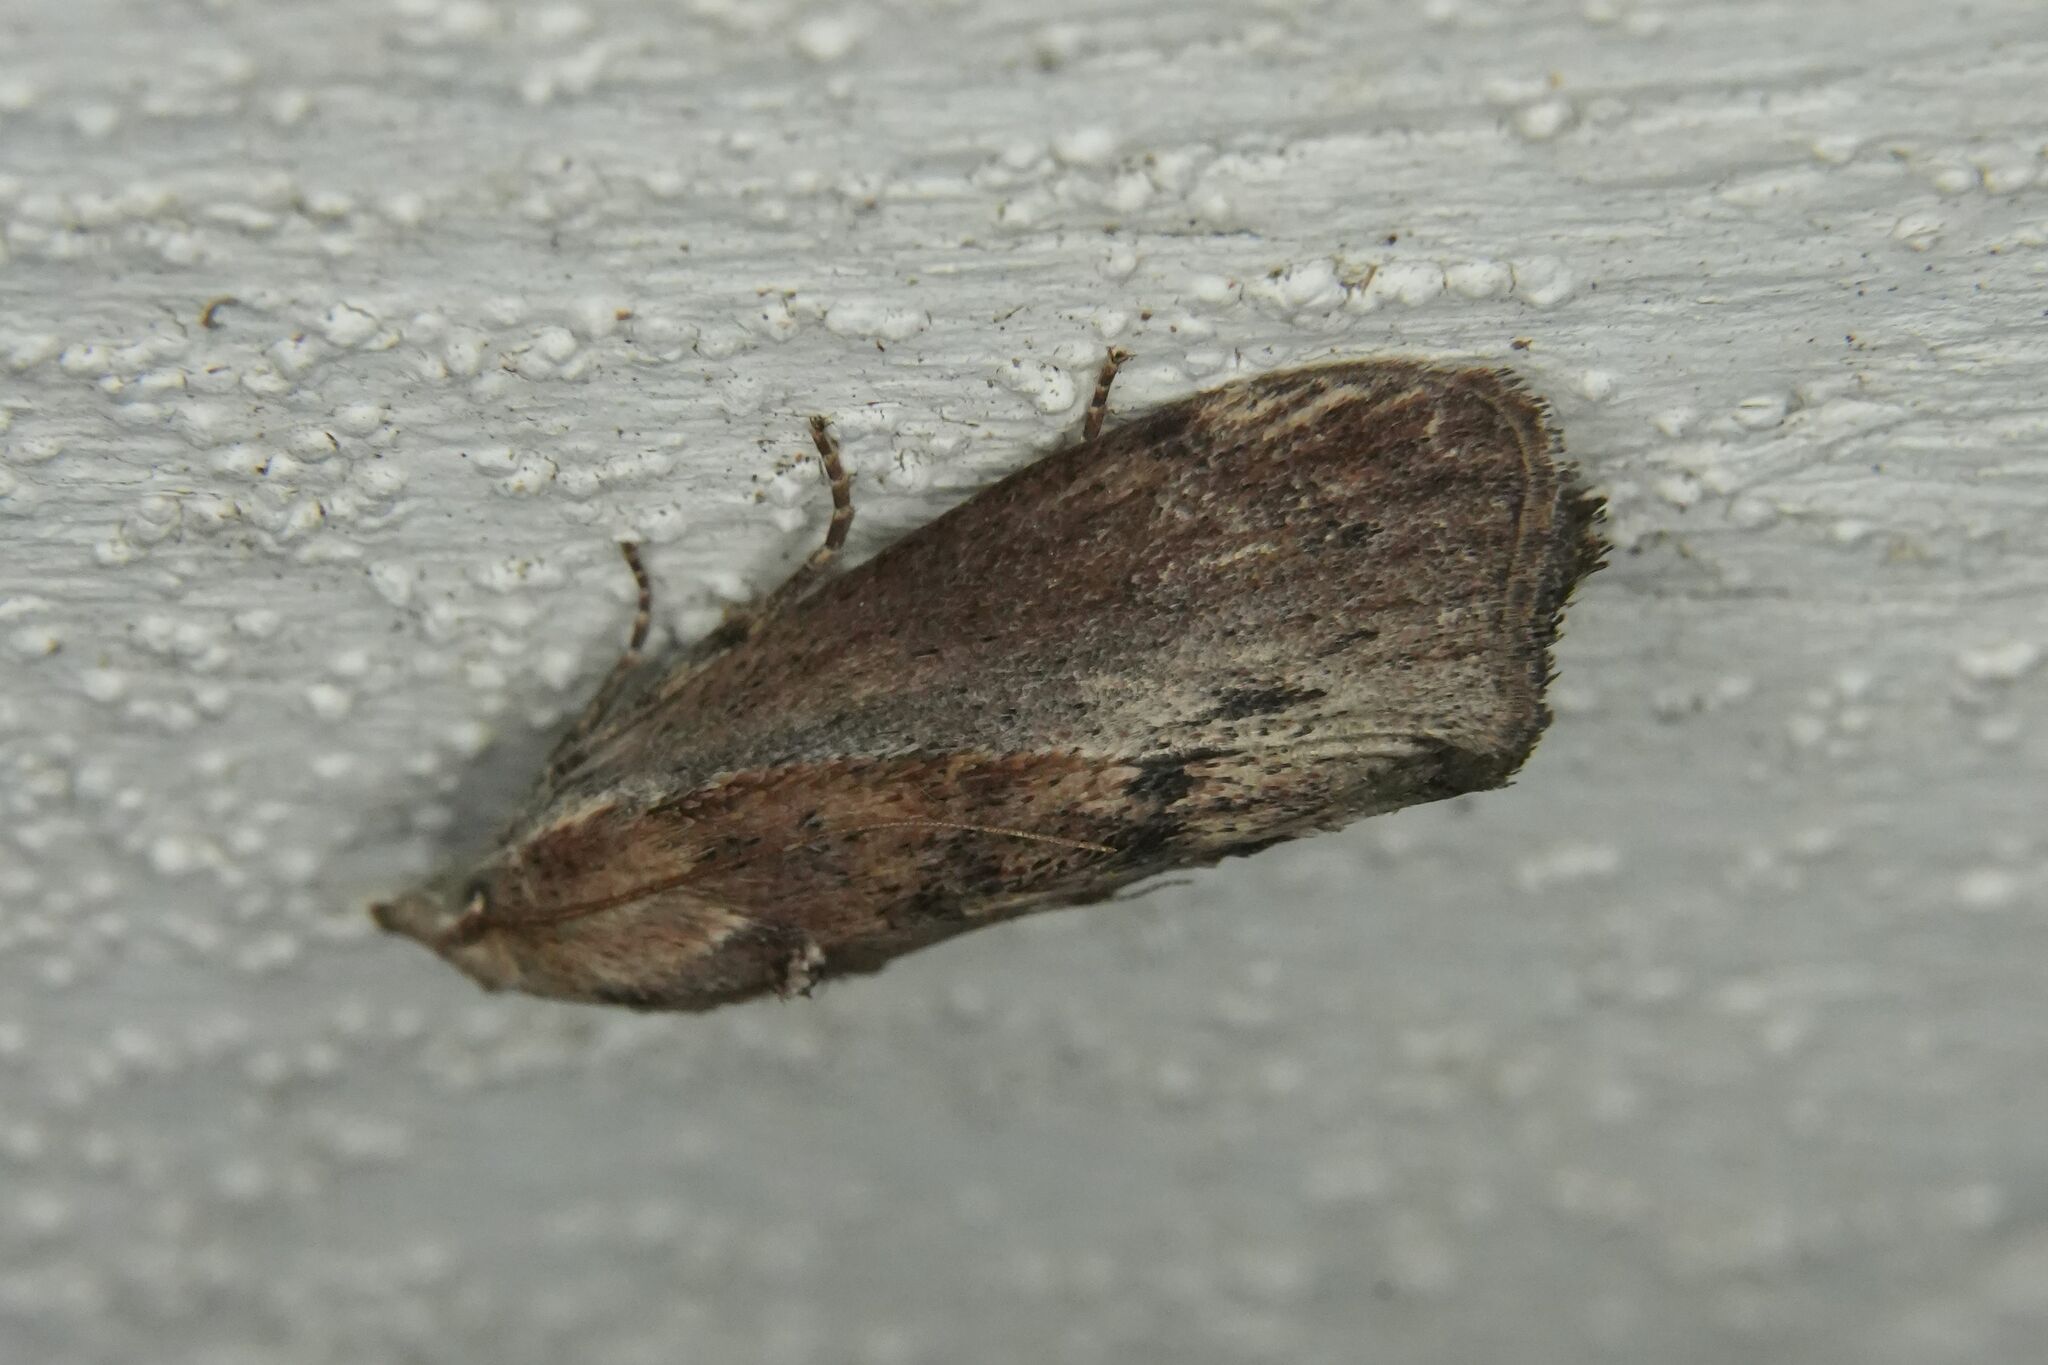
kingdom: Animalia
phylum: Arthropoda
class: Insecta
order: Lepidoptera
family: Pyralidae
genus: Galleria
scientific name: Galleria mellonella
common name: Greater wax moth
